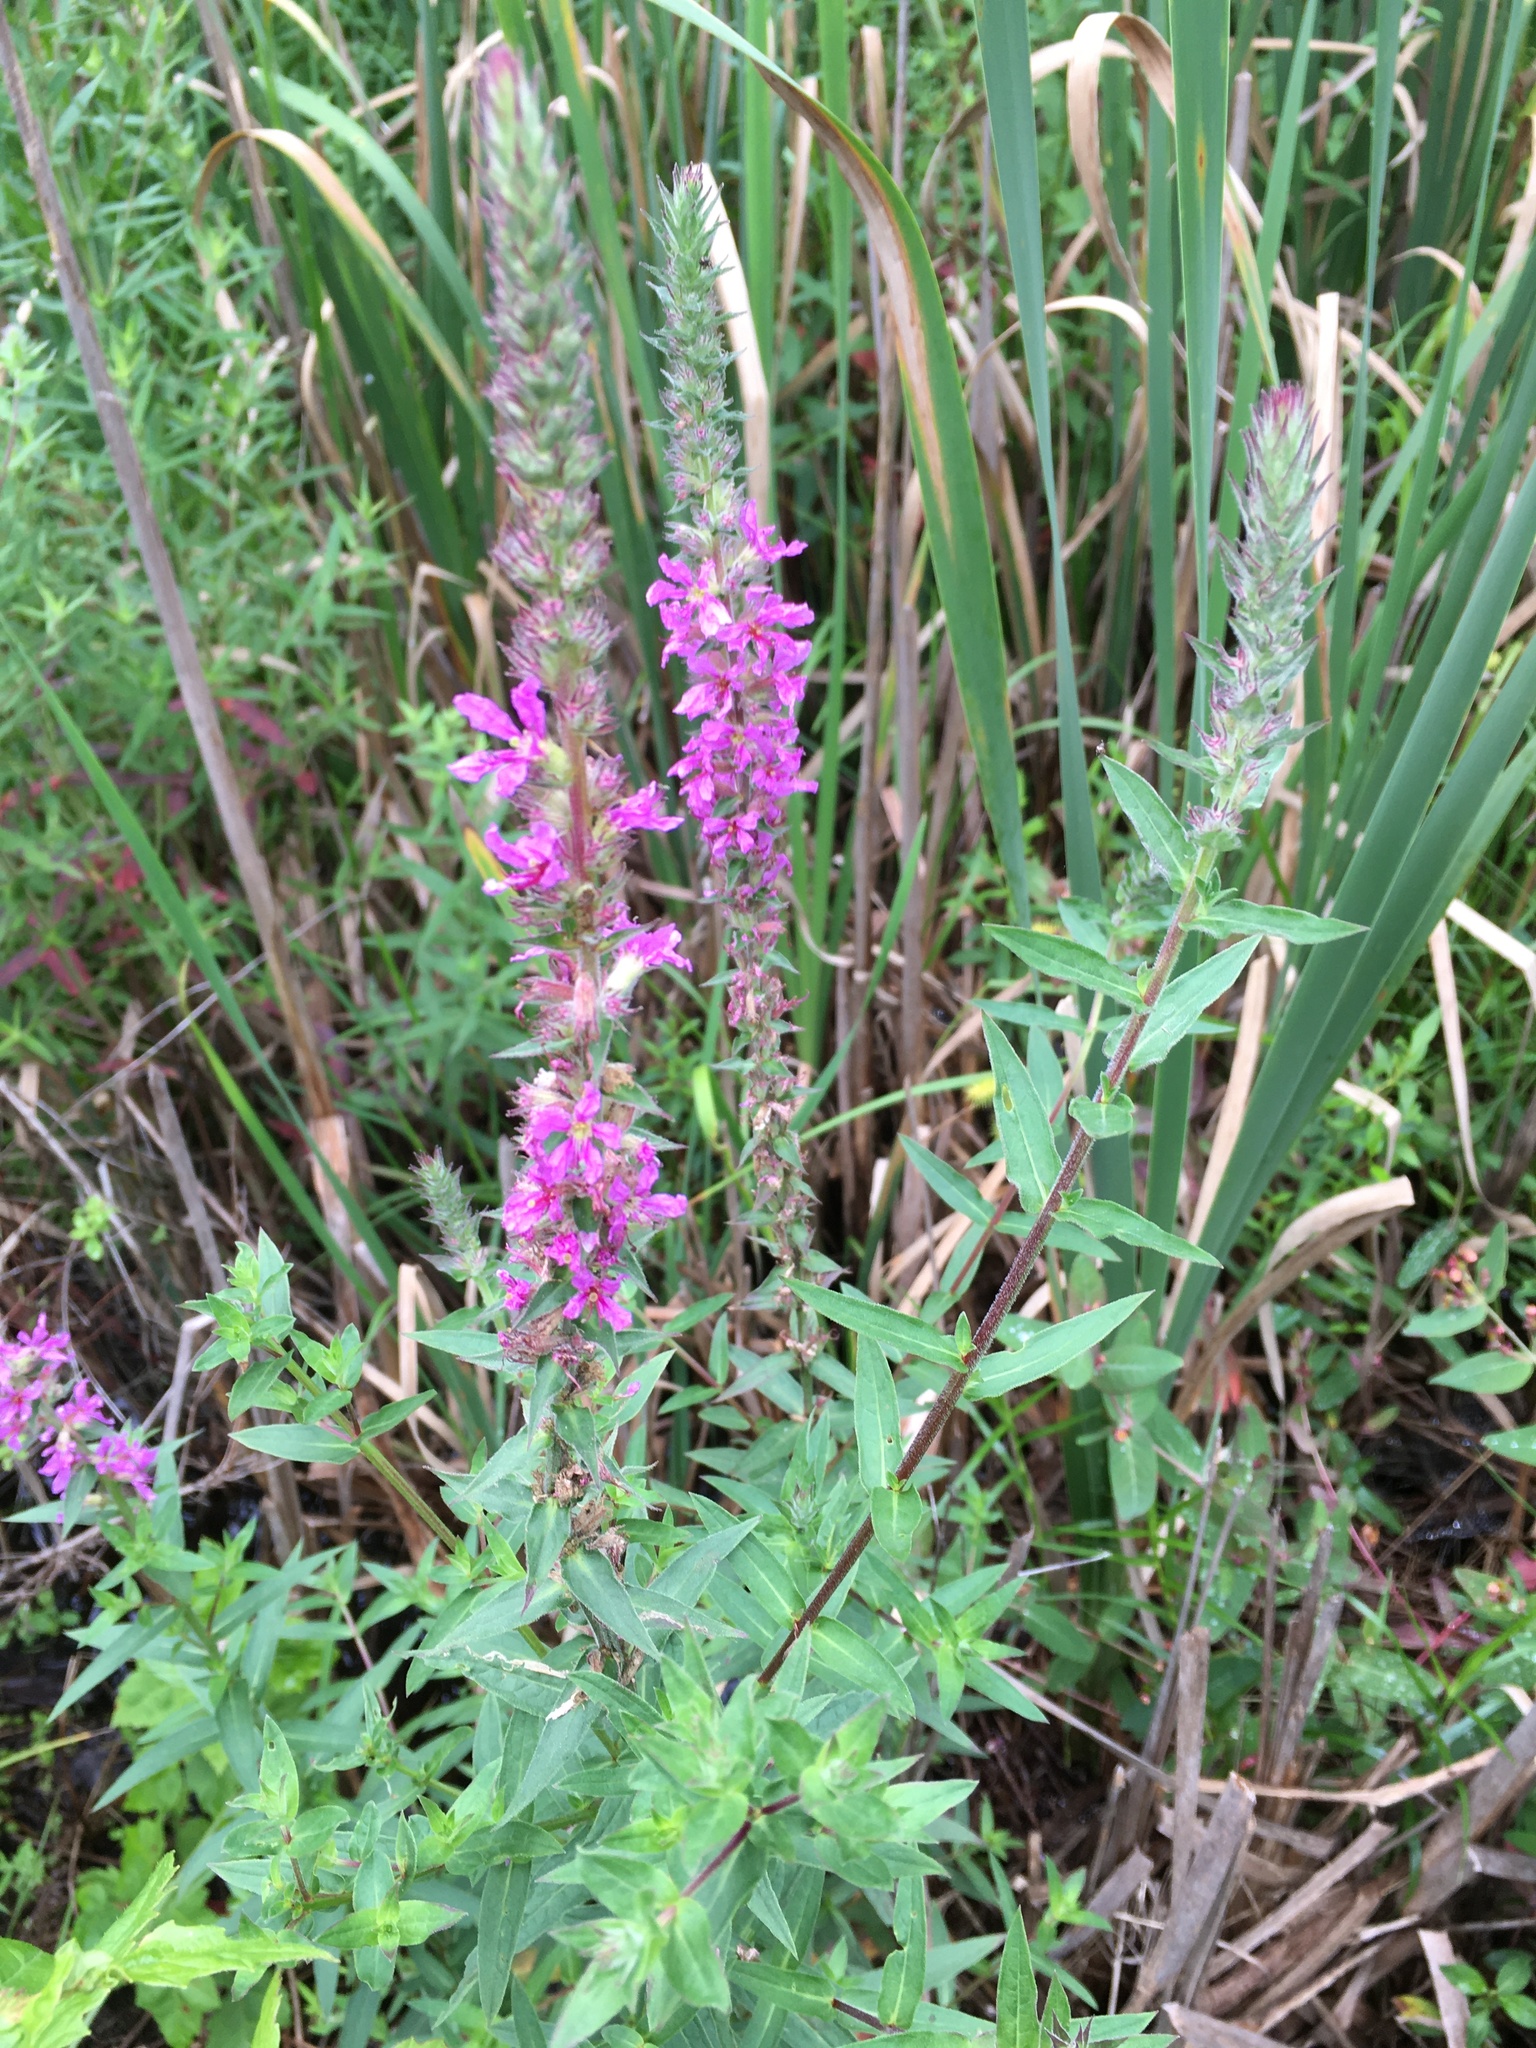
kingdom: Plantae
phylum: Tracheophyta
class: Magnoliopsida
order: Myrtales
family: Lythraceae
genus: Lythrum
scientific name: Lythrum salicaria
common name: Purple loosestrife
